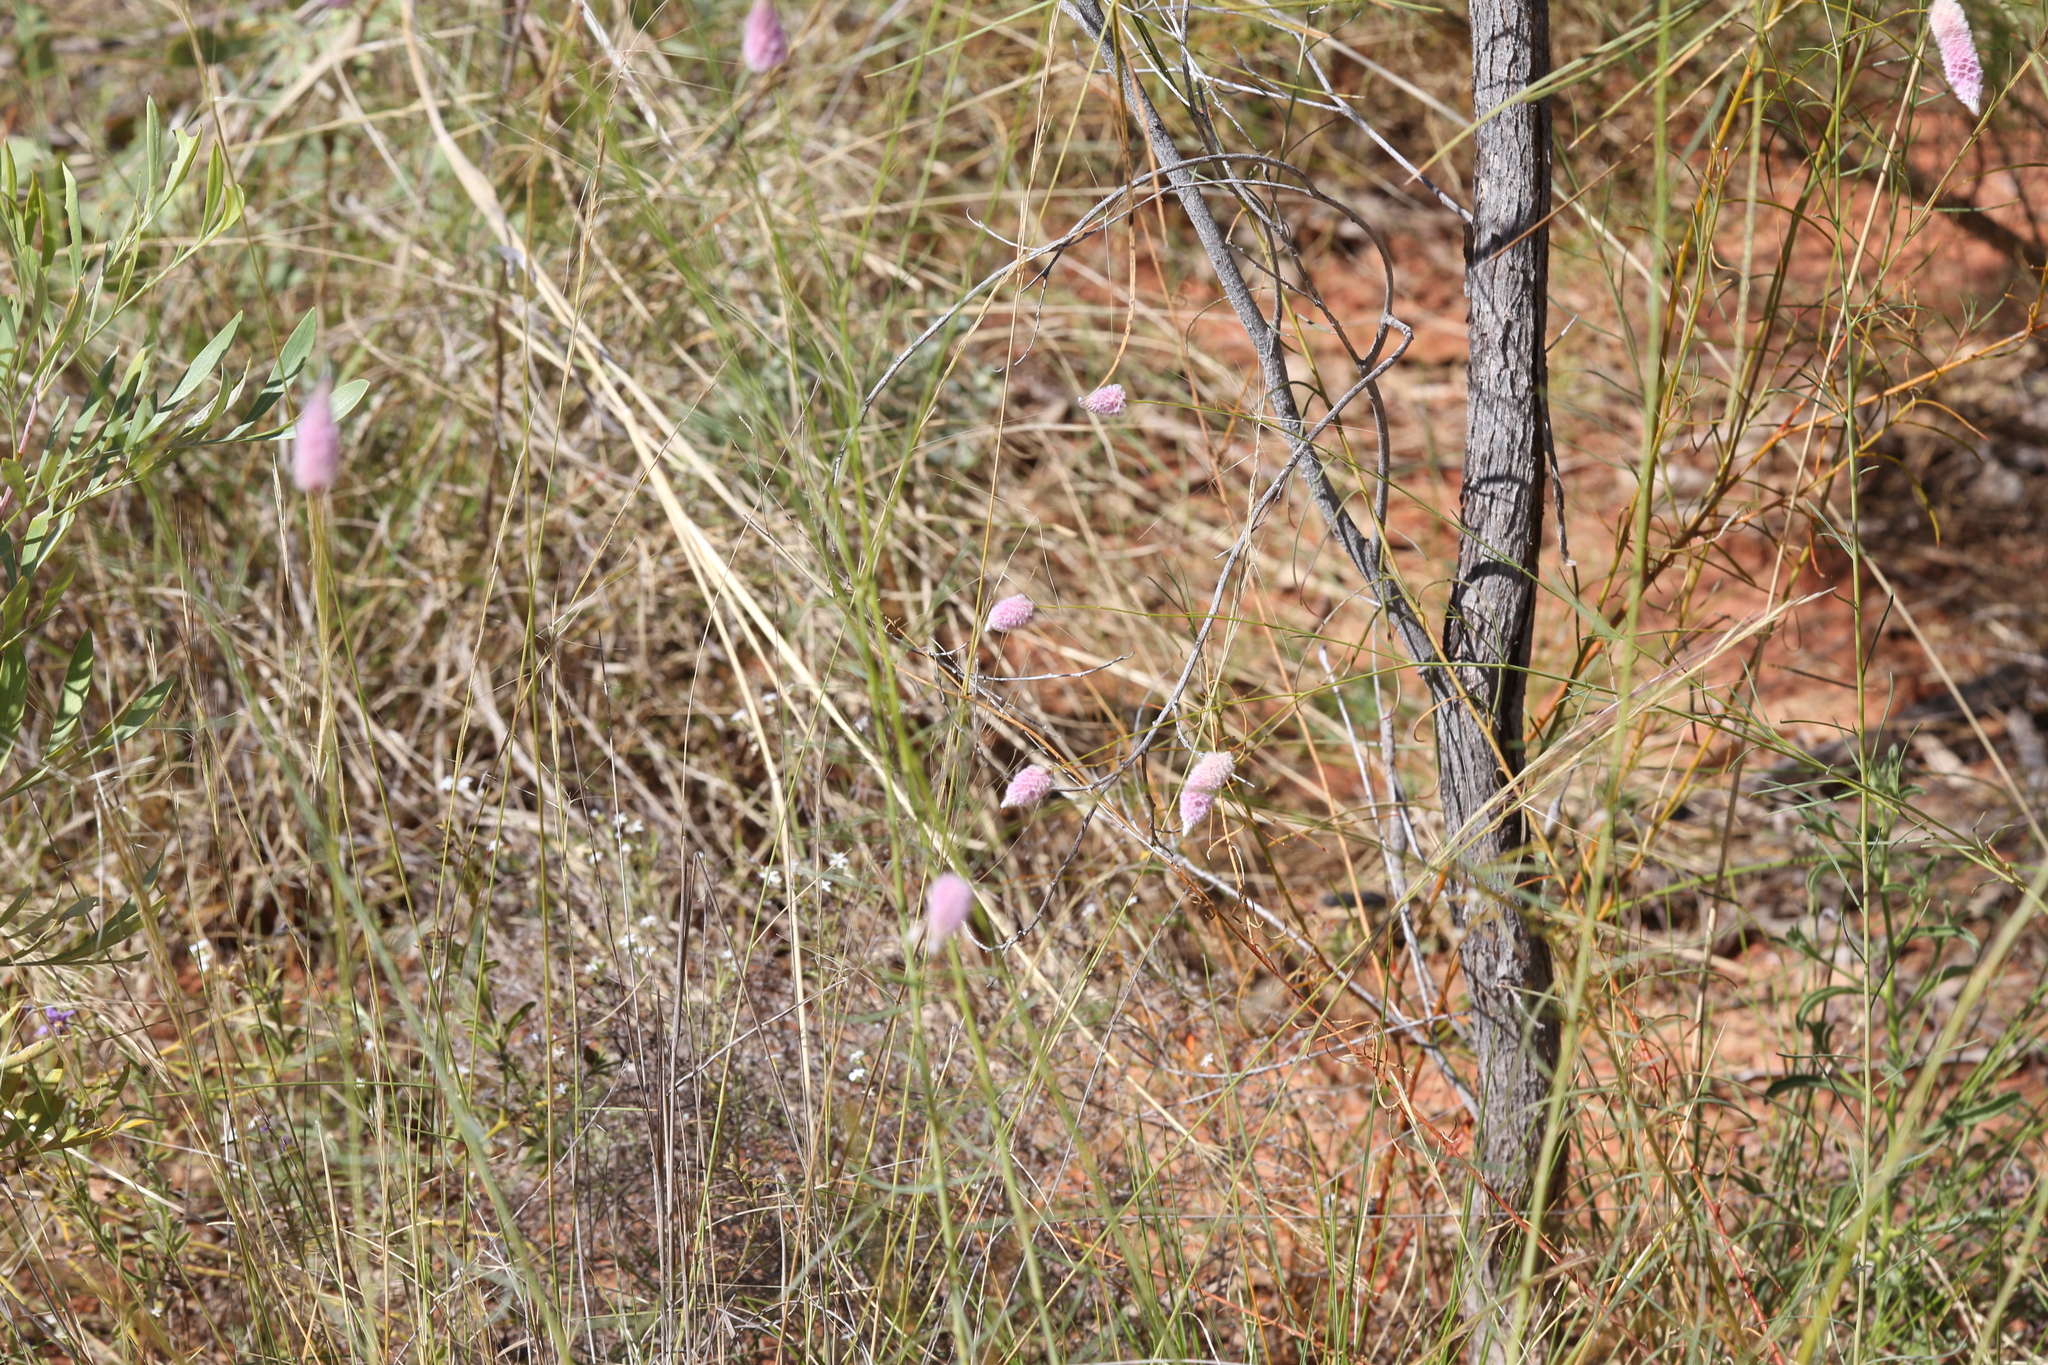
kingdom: Plantae
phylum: Tracheophyta
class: Magnoliopsida
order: Caryophyllales
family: Amaranthaceae
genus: Ptilotus
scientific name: Ptilotus calostachyus
